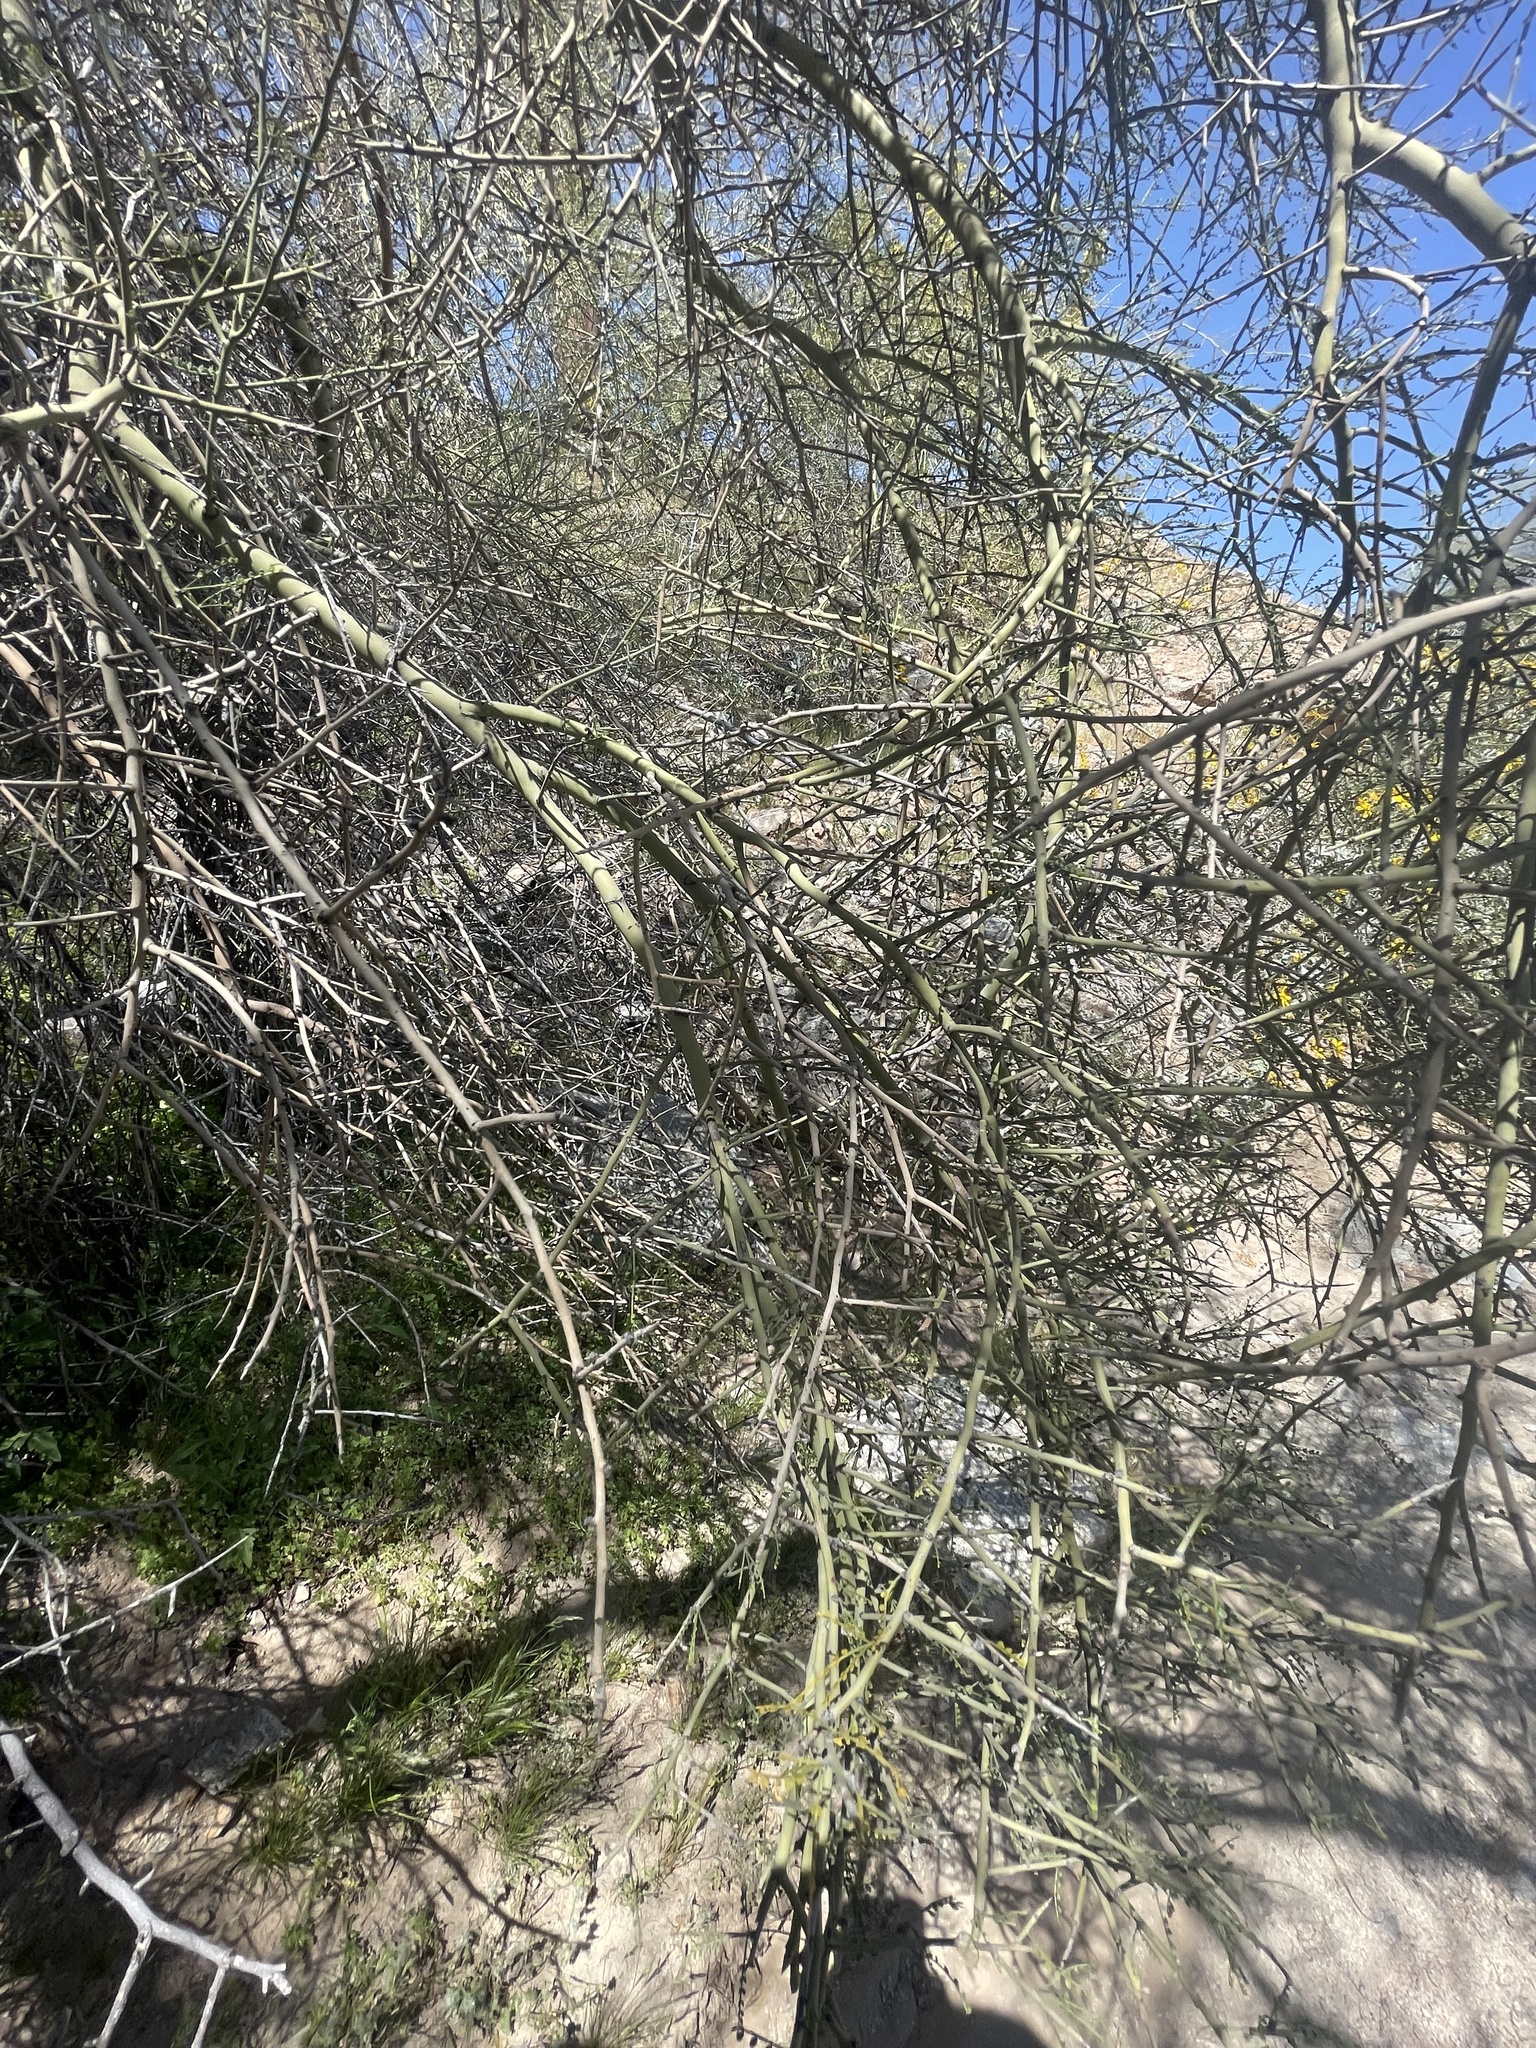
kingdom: Plantae
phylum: Tracheophyta
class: Magnoliopsida
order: Fabales
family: Fabaceae
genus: Parkinsonia
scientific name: Parkinsonia microphylla
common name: Yellow paloverde
